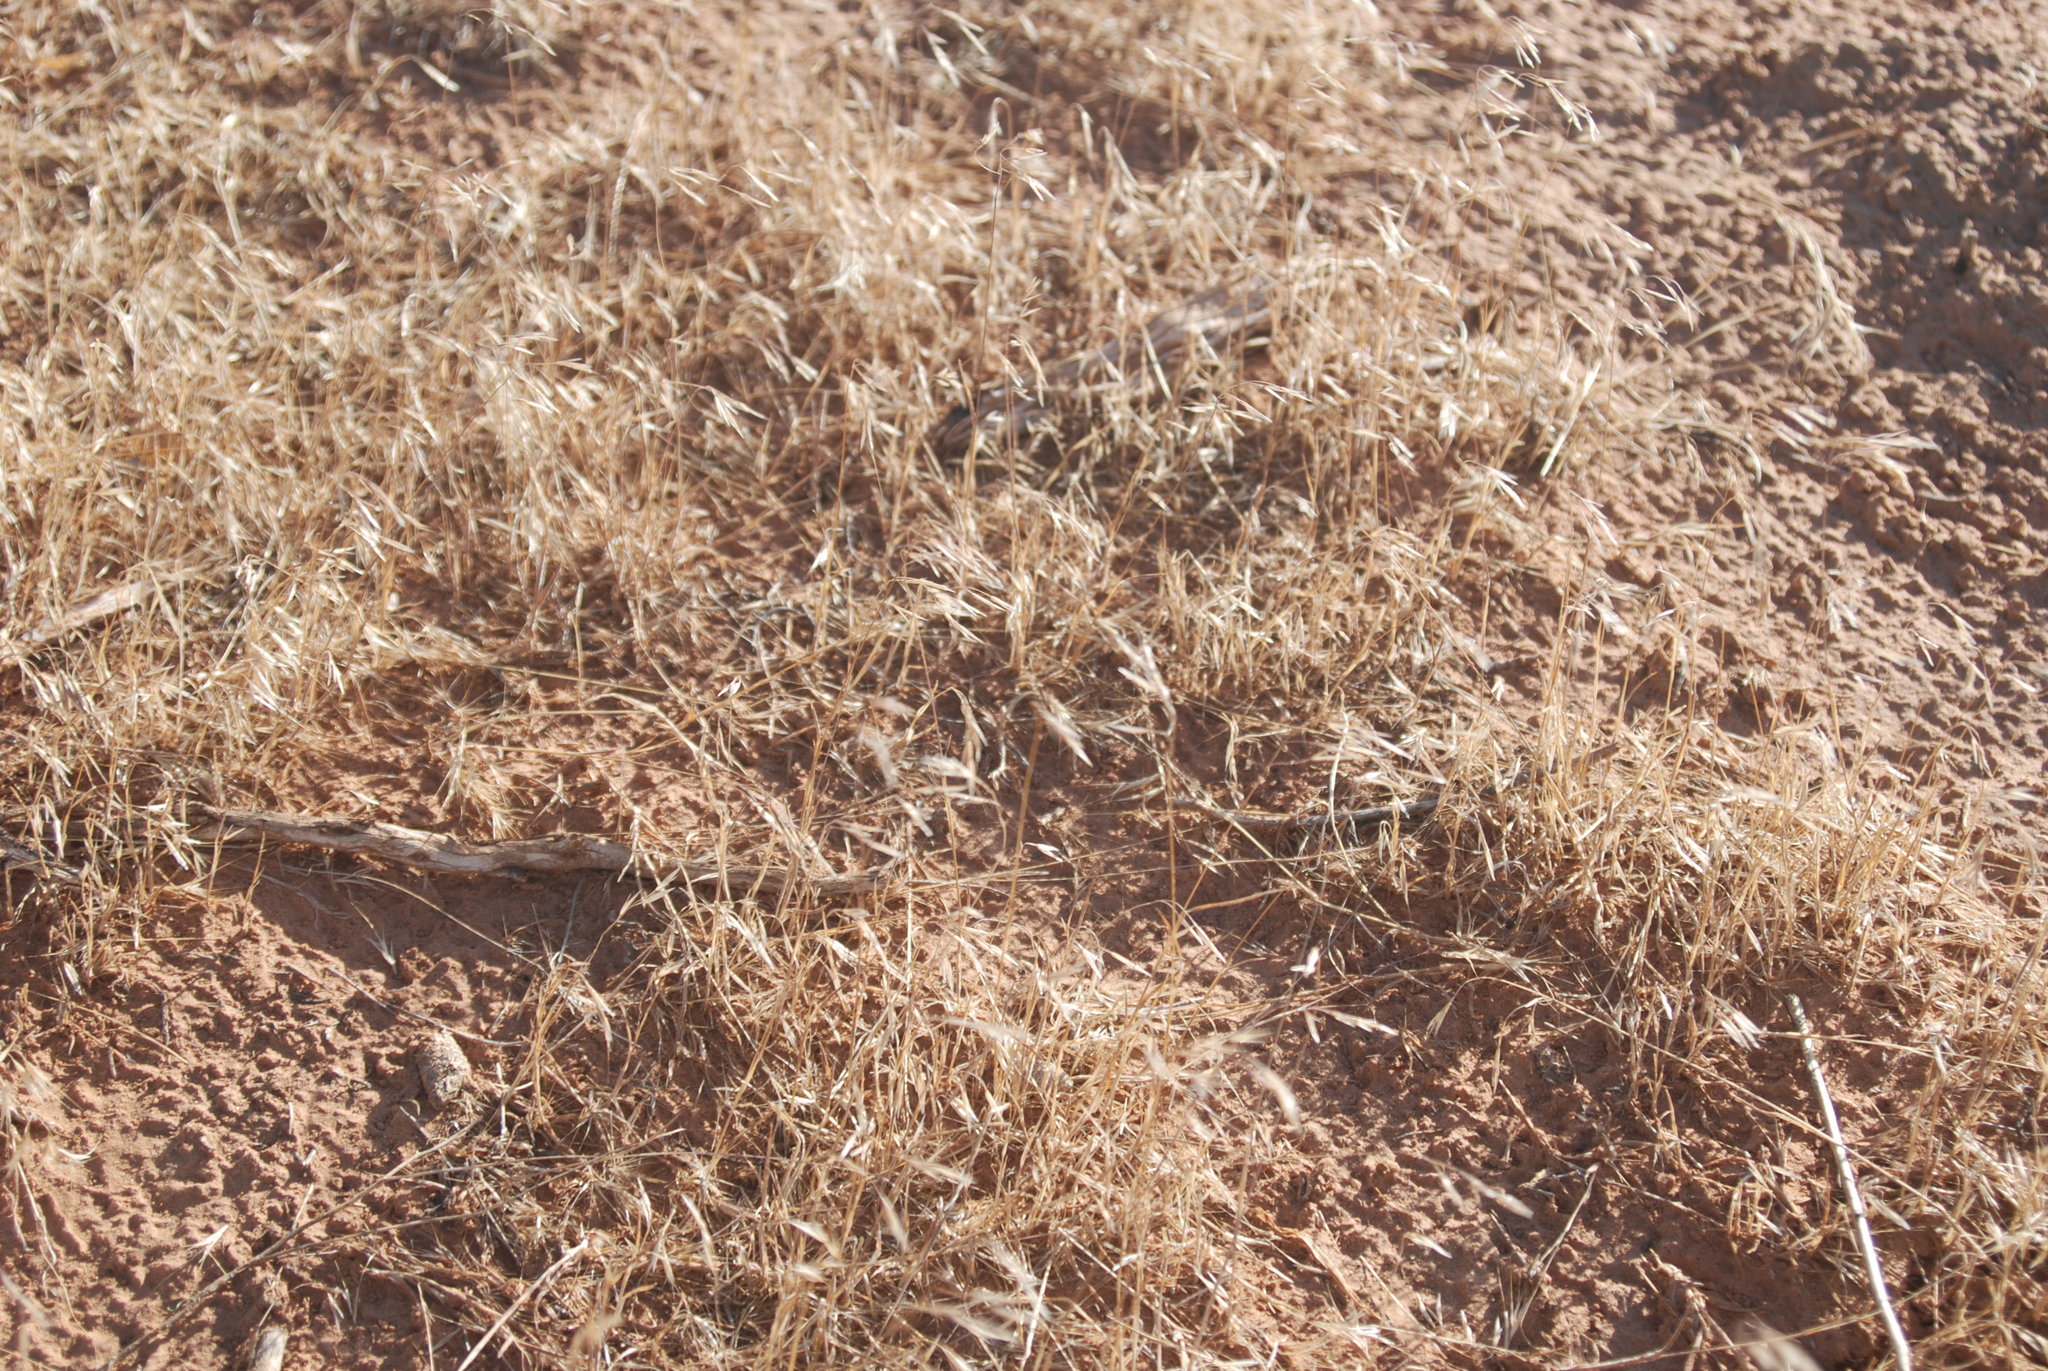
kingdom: Plantae
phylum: Tracheophyta
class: Liliopsida
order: Poales
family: Poaceae
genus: Bromus
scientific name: Bromus tectorum
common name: Cheatgrass
